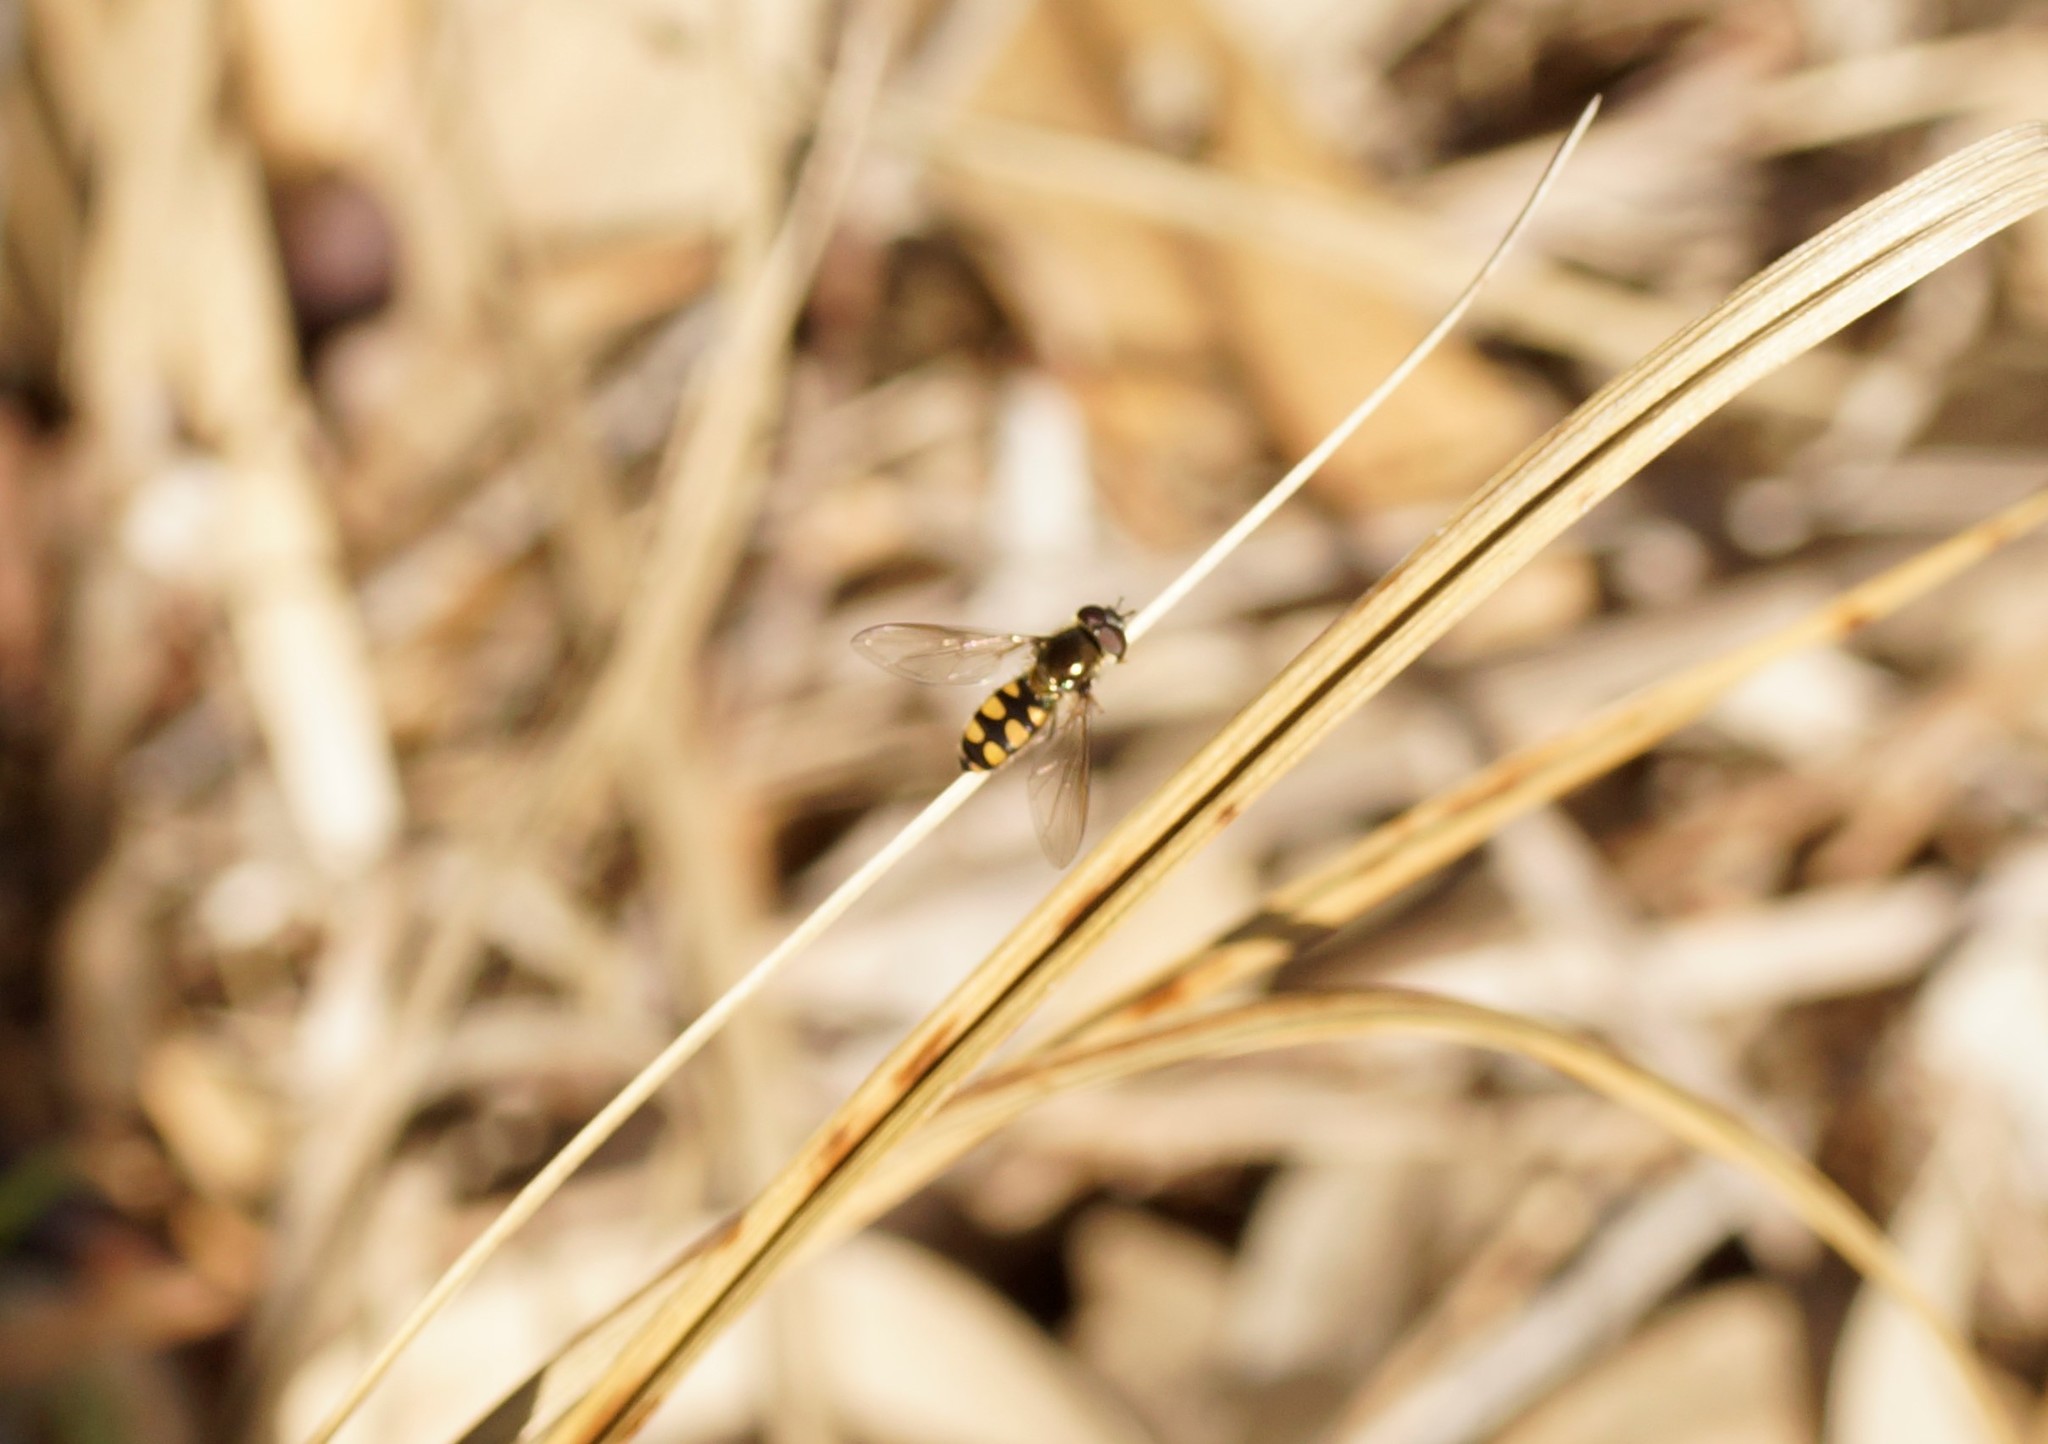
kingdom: Animalia
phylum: Arthropoda
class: Insecta
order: Diptera
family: Syrphidae
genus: Melangyna
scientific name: Melangyna viridiceps
